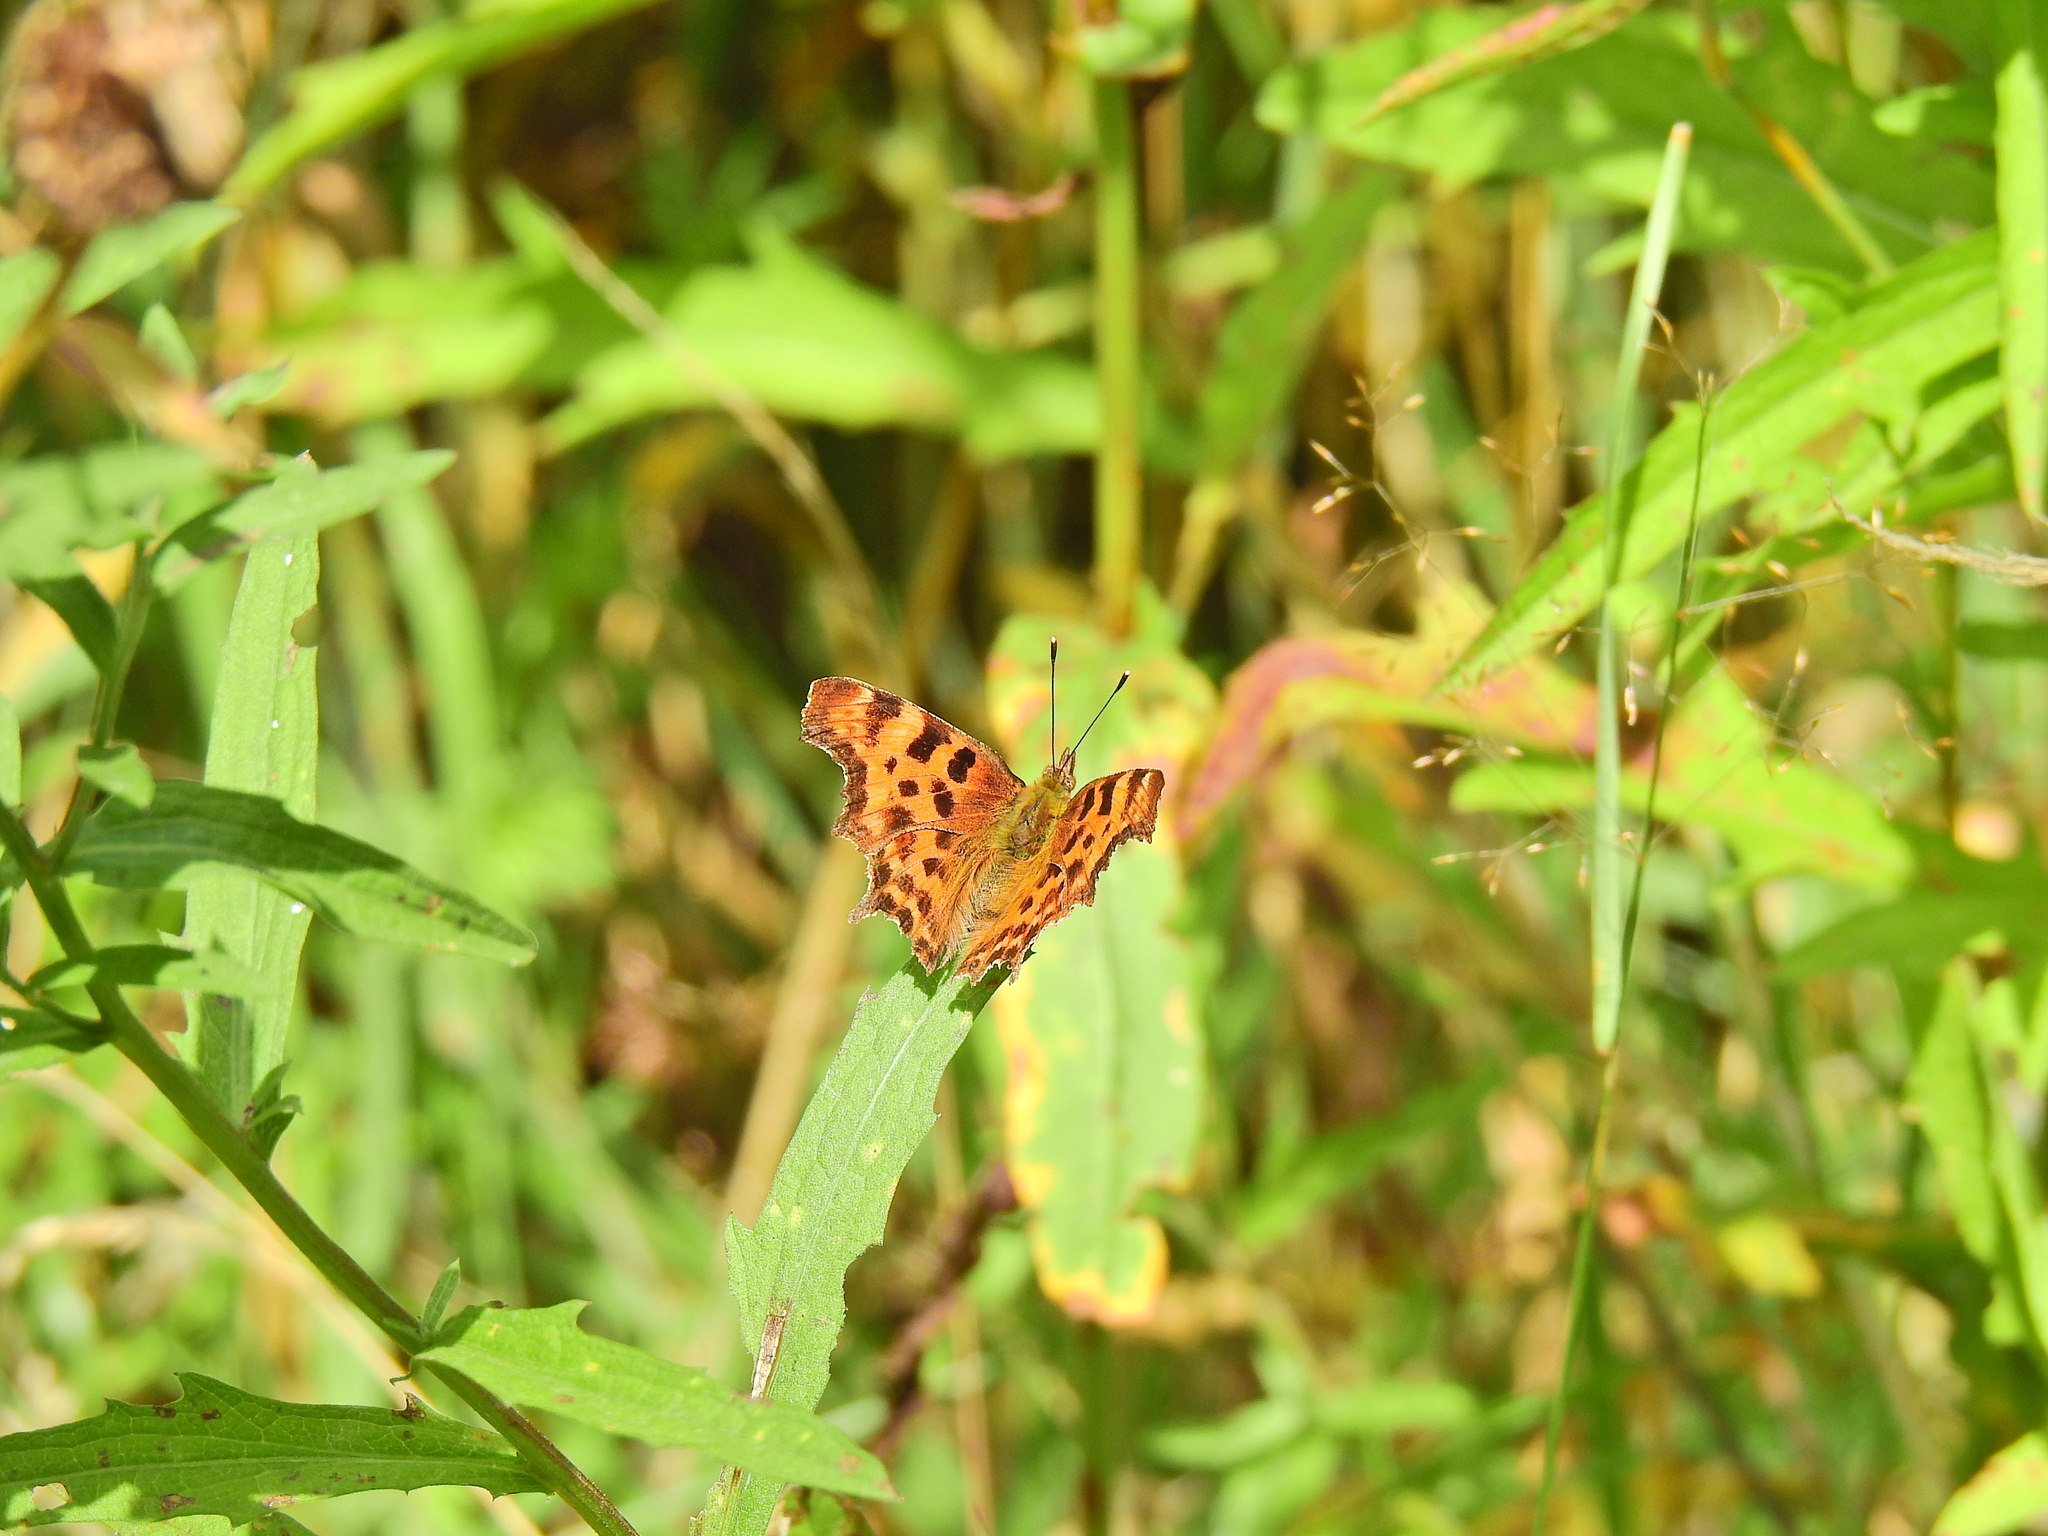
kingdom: Animalia
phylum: Arthropoda
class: Insecta
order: Lepidoptera
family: Nymphalidae
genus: Polygonia
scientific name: Polygonia c-album
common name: Comma
